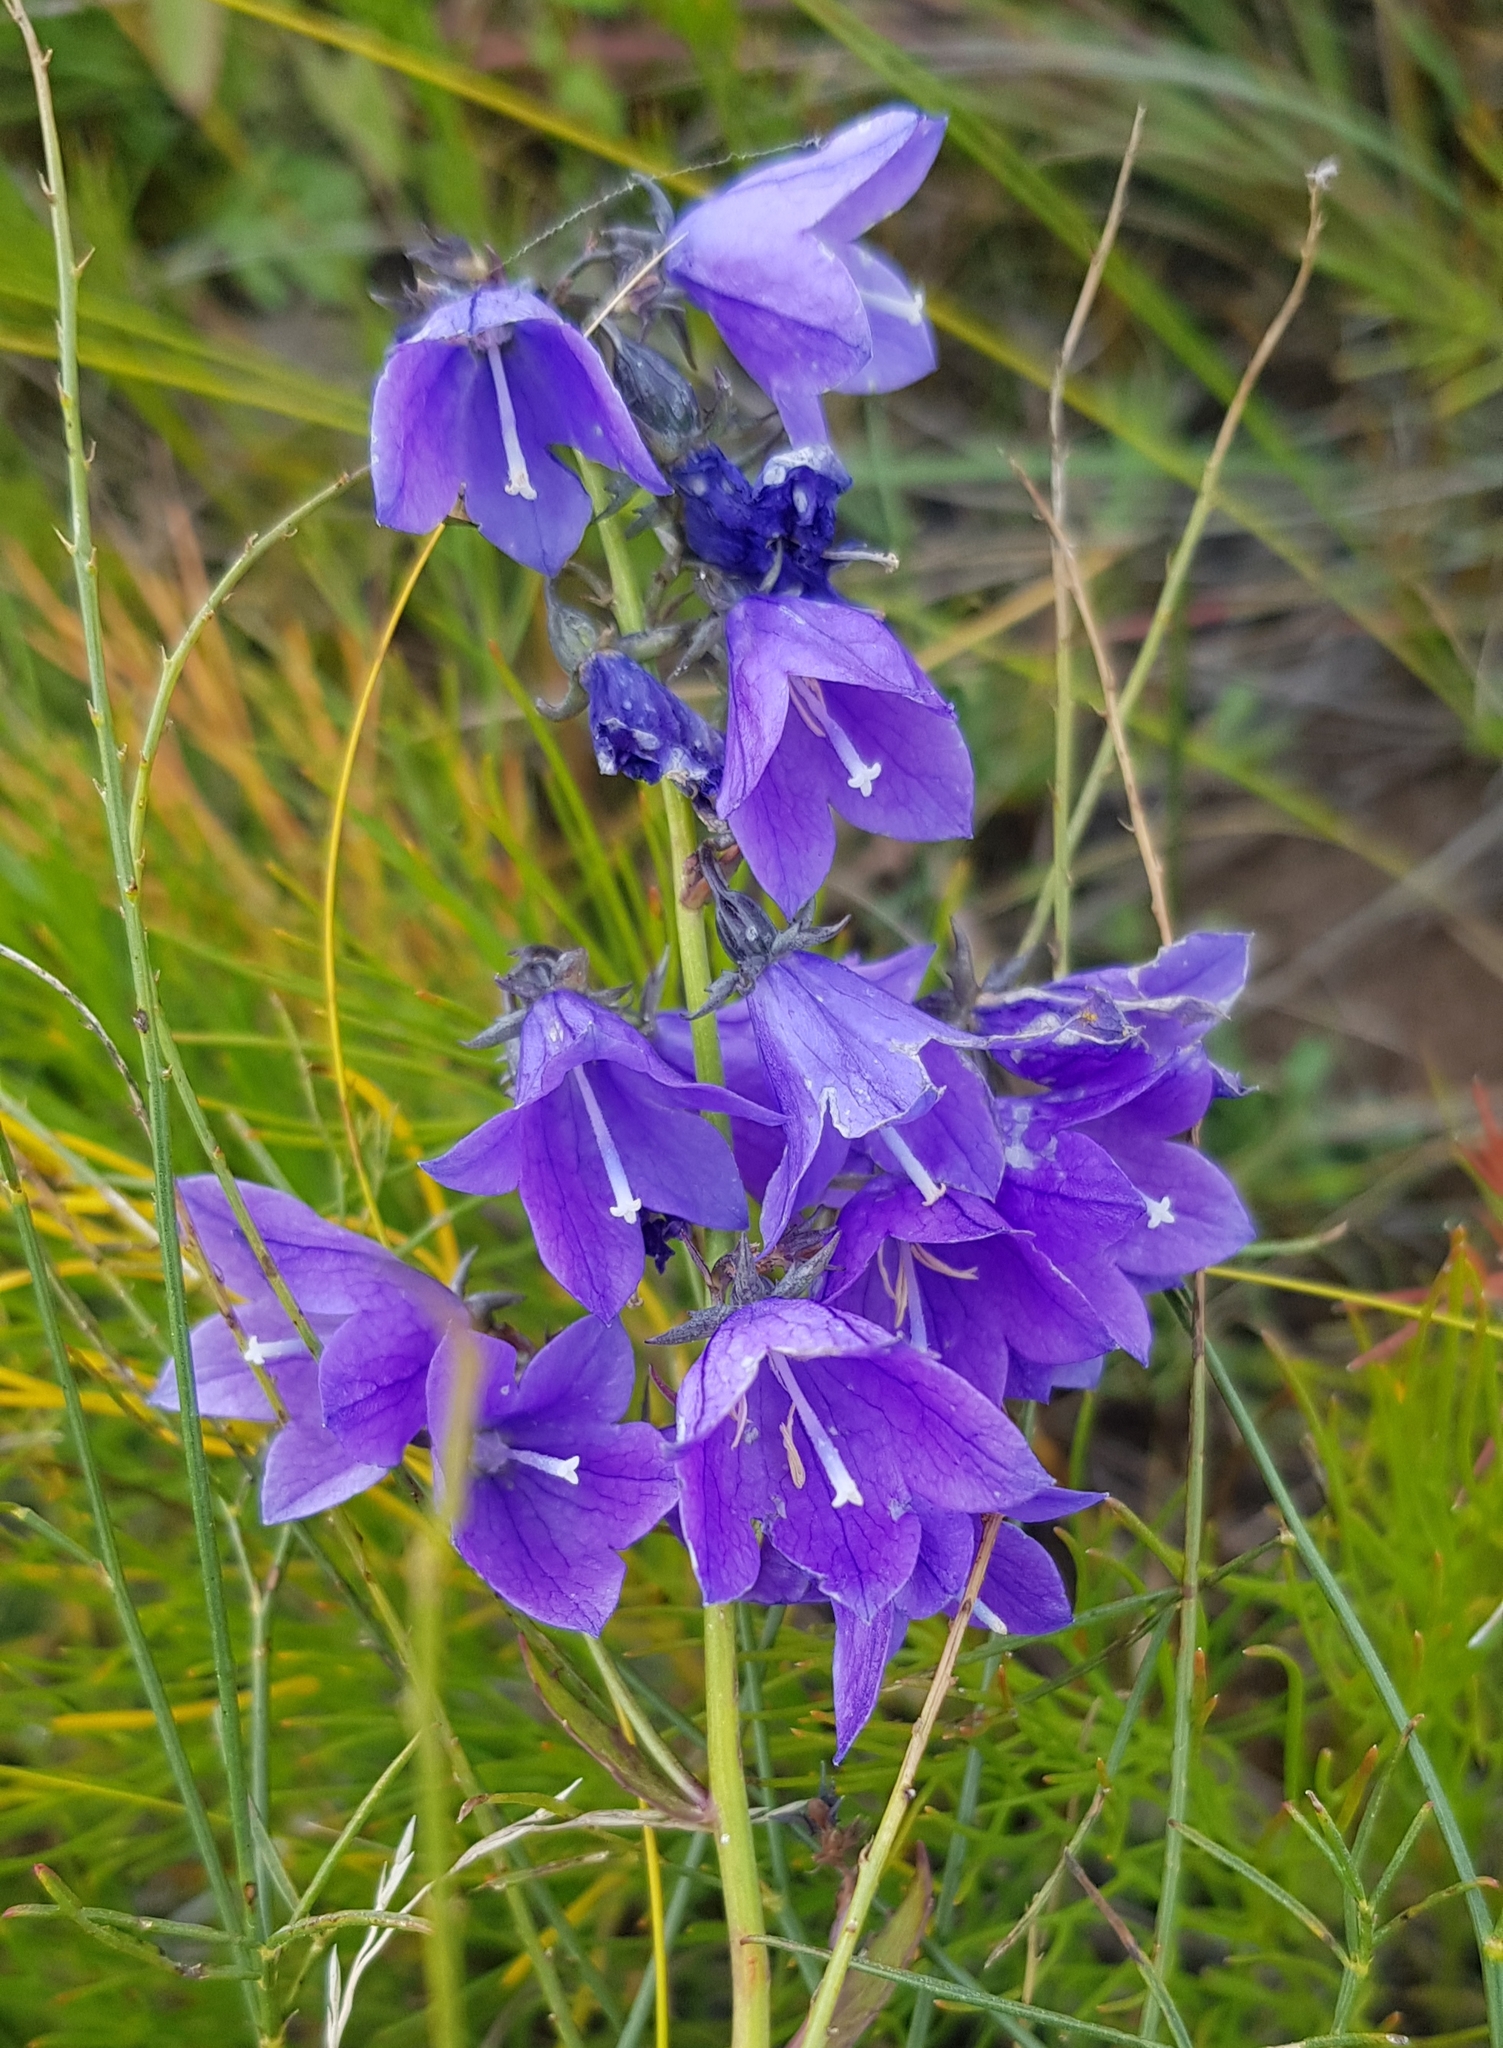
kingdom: Plantae
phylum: Tracheophyta
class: Magnoliopsida
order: Asterales
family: Campanulaceae
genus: Adenophora
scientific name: Adenophora pereskiifolia
